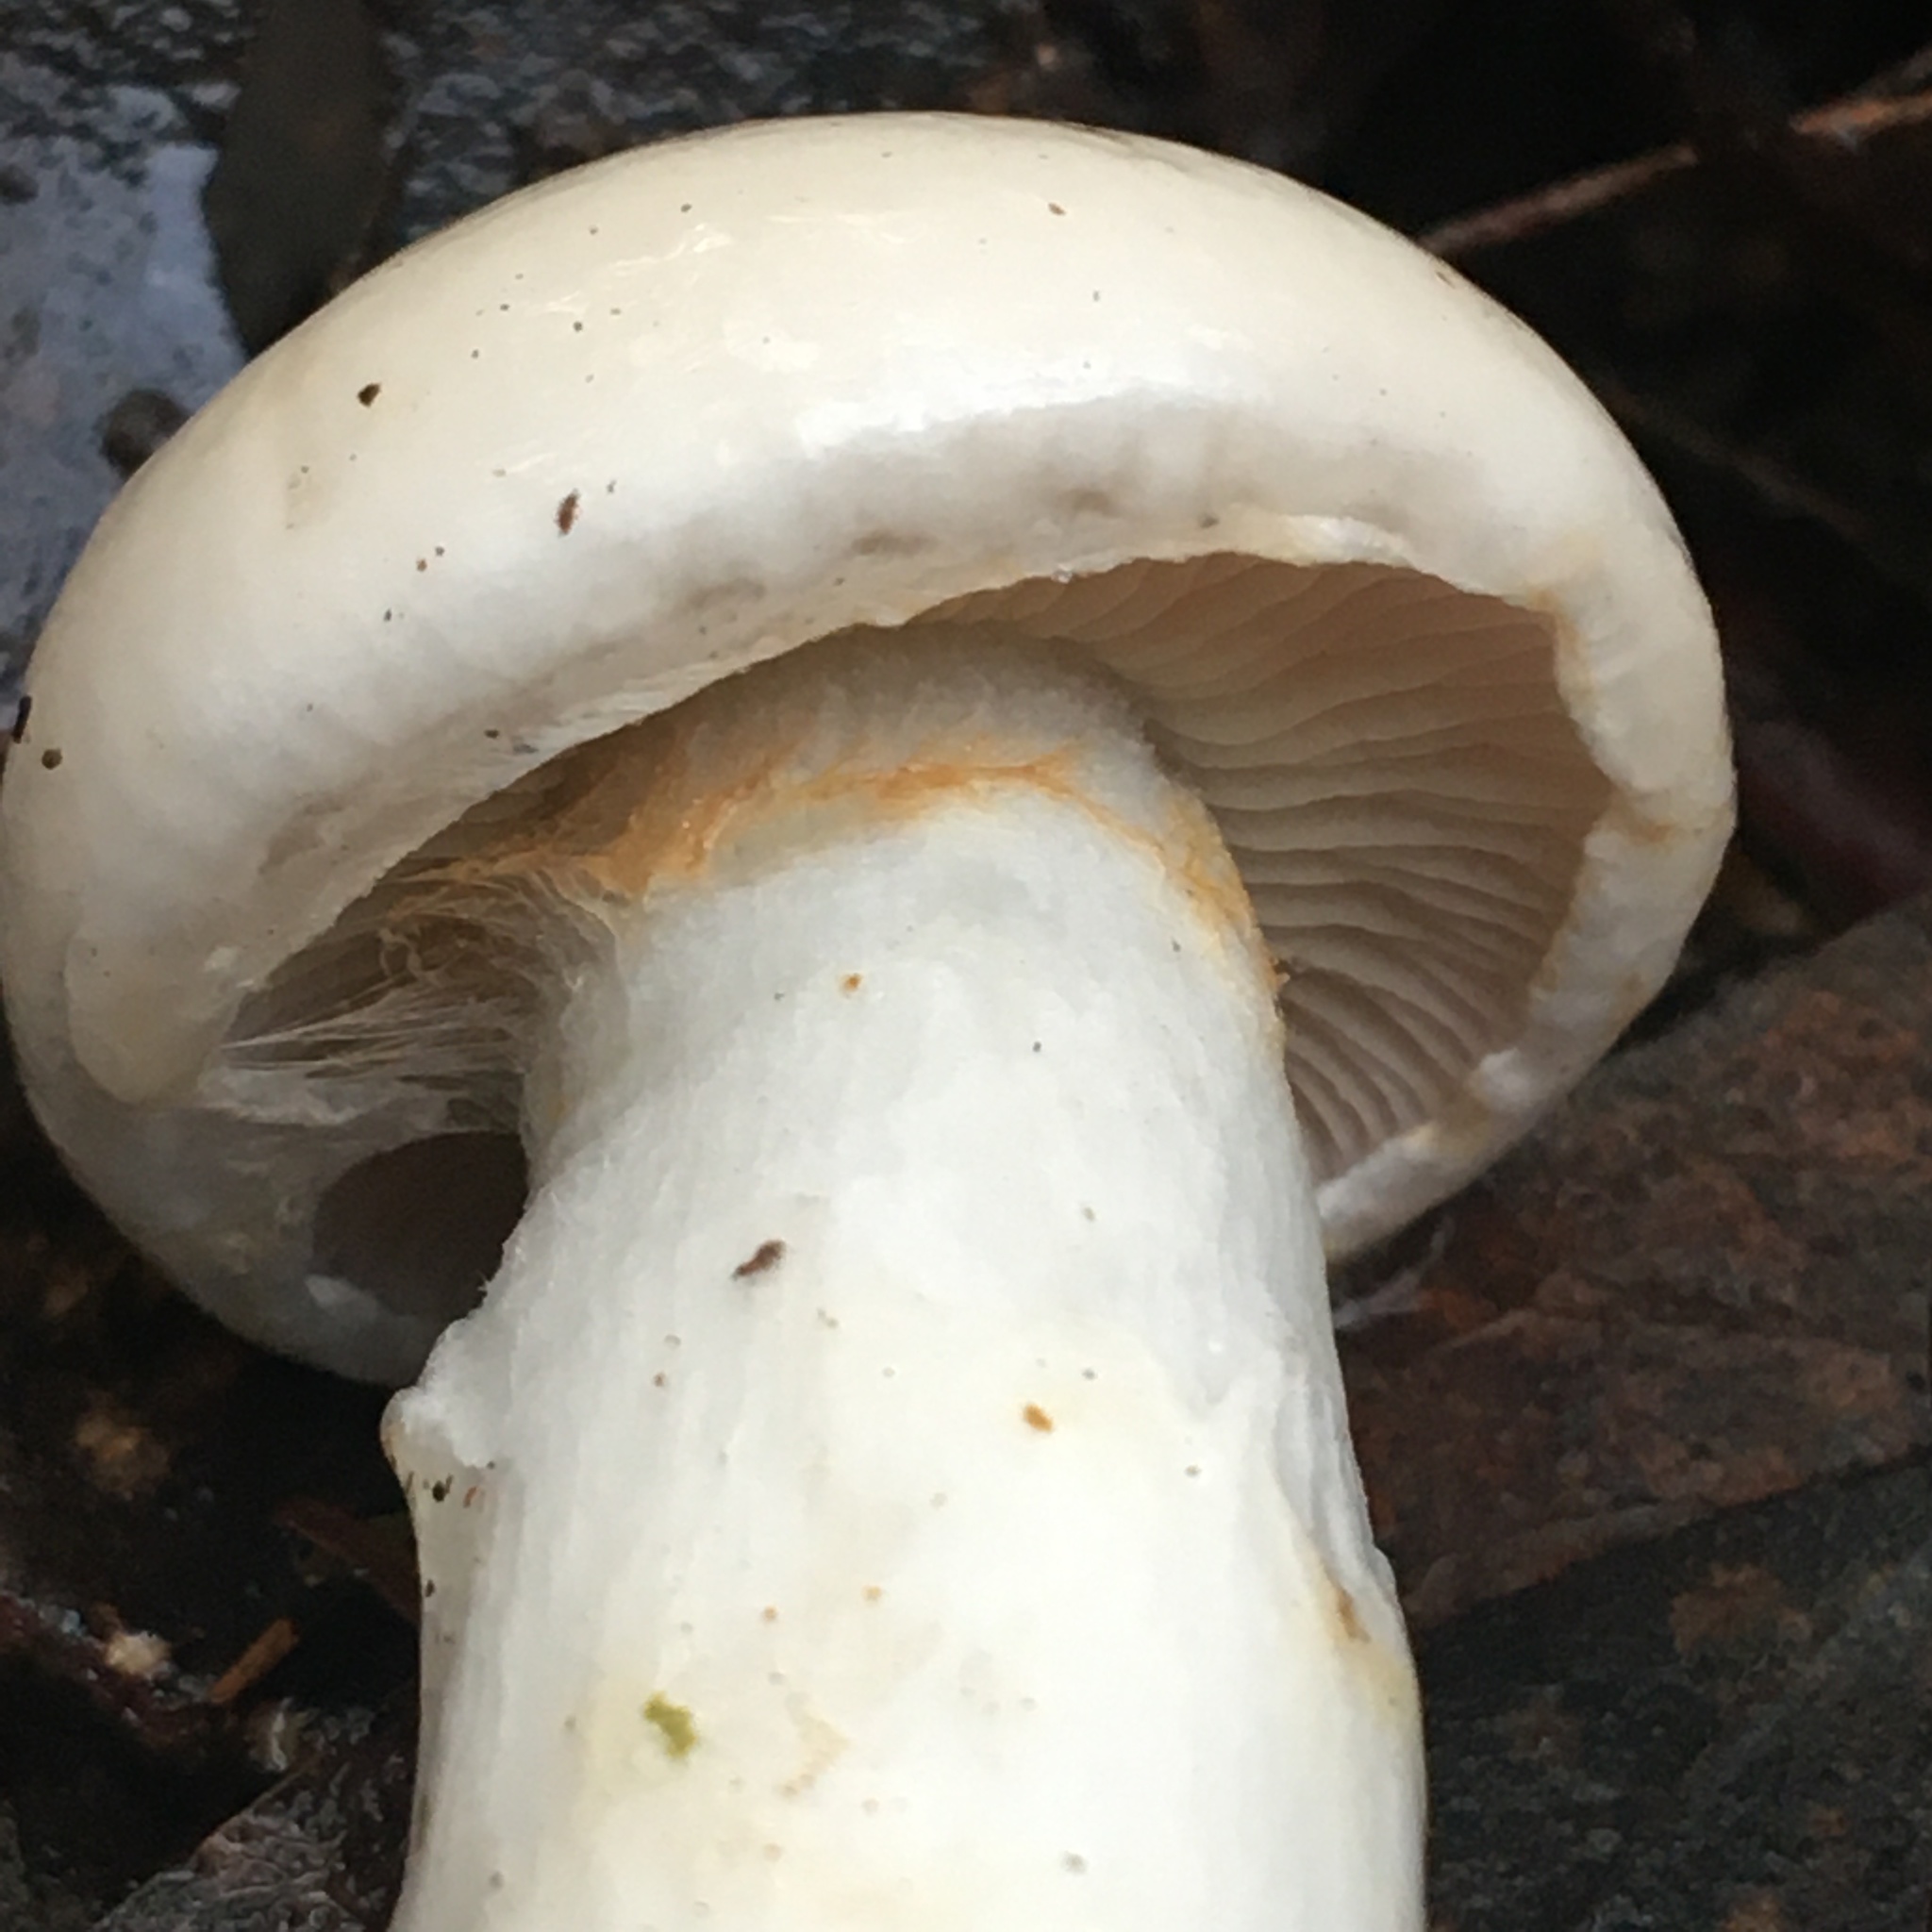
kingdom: Fungi
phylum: Basidiomycota
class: Agaricomycetes
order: Agaricales
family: Cortinariaceae
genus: Cortinarius
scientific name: Cortinarius austroalbidus
